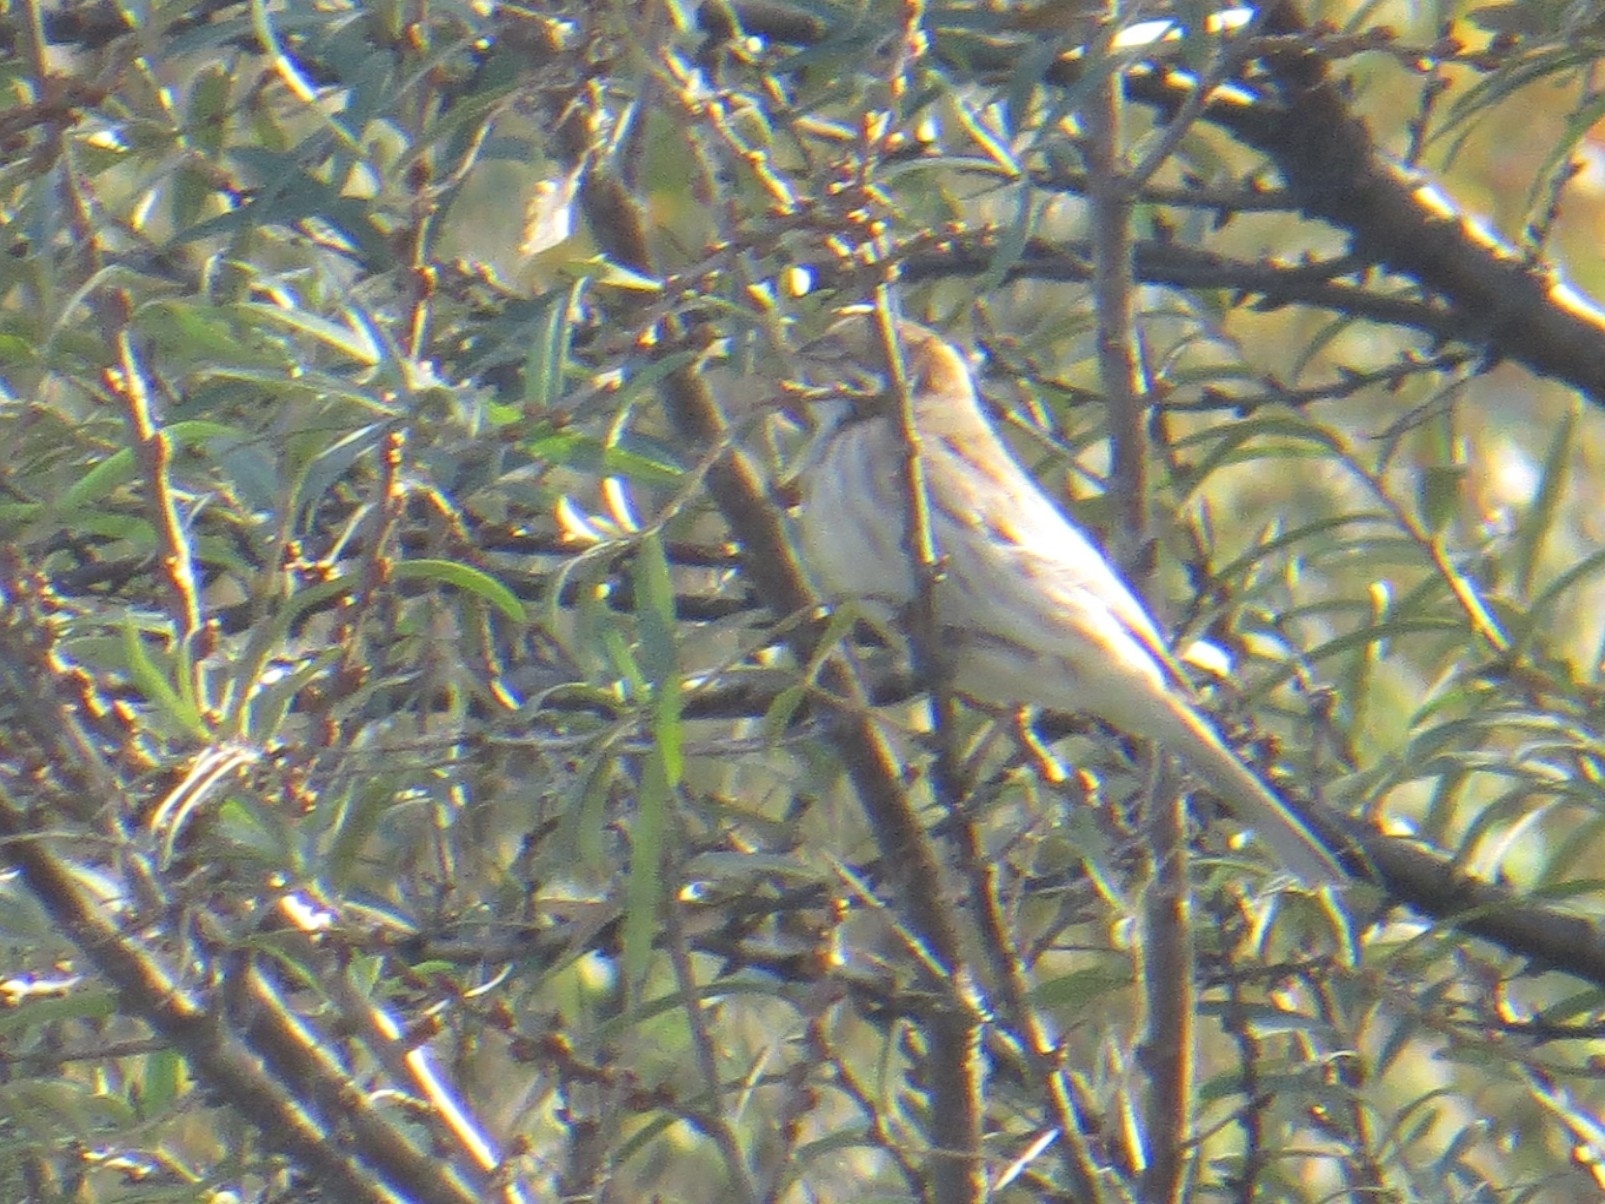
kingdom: Animalia
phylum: Chordata
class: Aves
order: Passeriformes
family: Emberizidae
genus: Emberiza
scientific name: Emberiza schoeniclus
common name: Reed bunting
